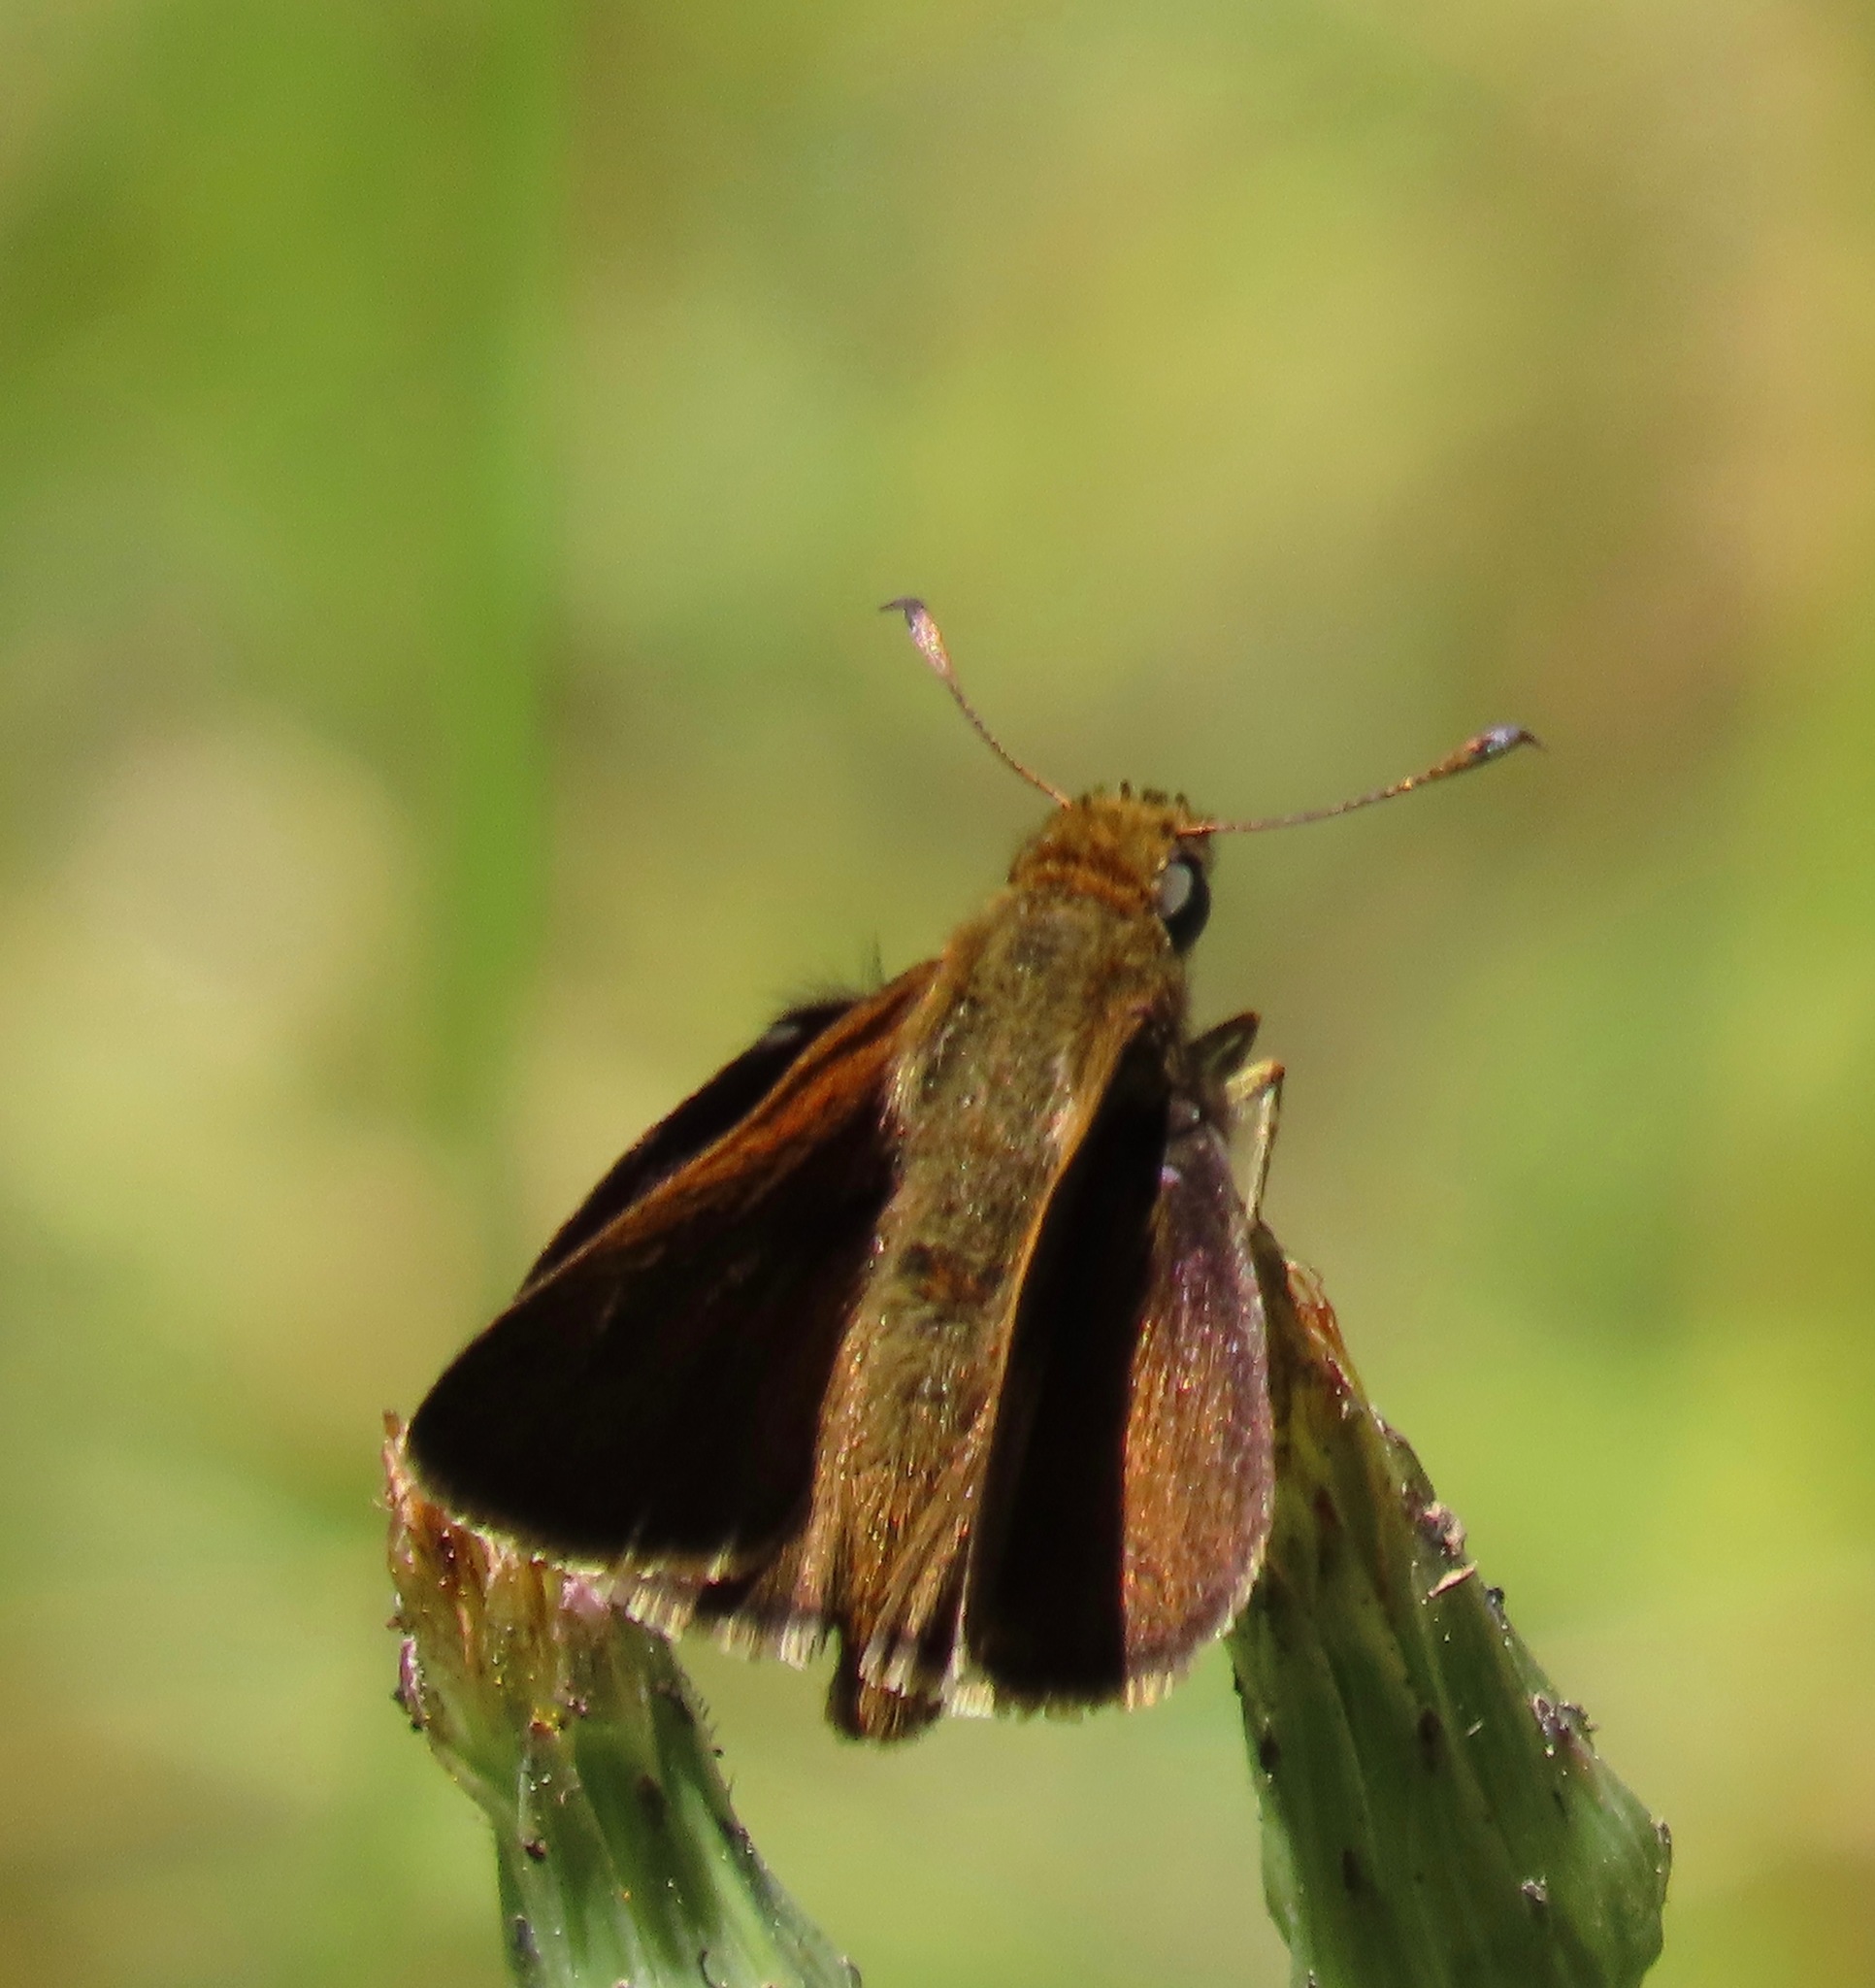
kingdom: Animalia
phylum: Arthropoda
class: Insecta
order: Lepidoptera
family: Hesperiidae
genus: Euphyes
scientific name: Euphyes vestris
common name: Dun skipper
